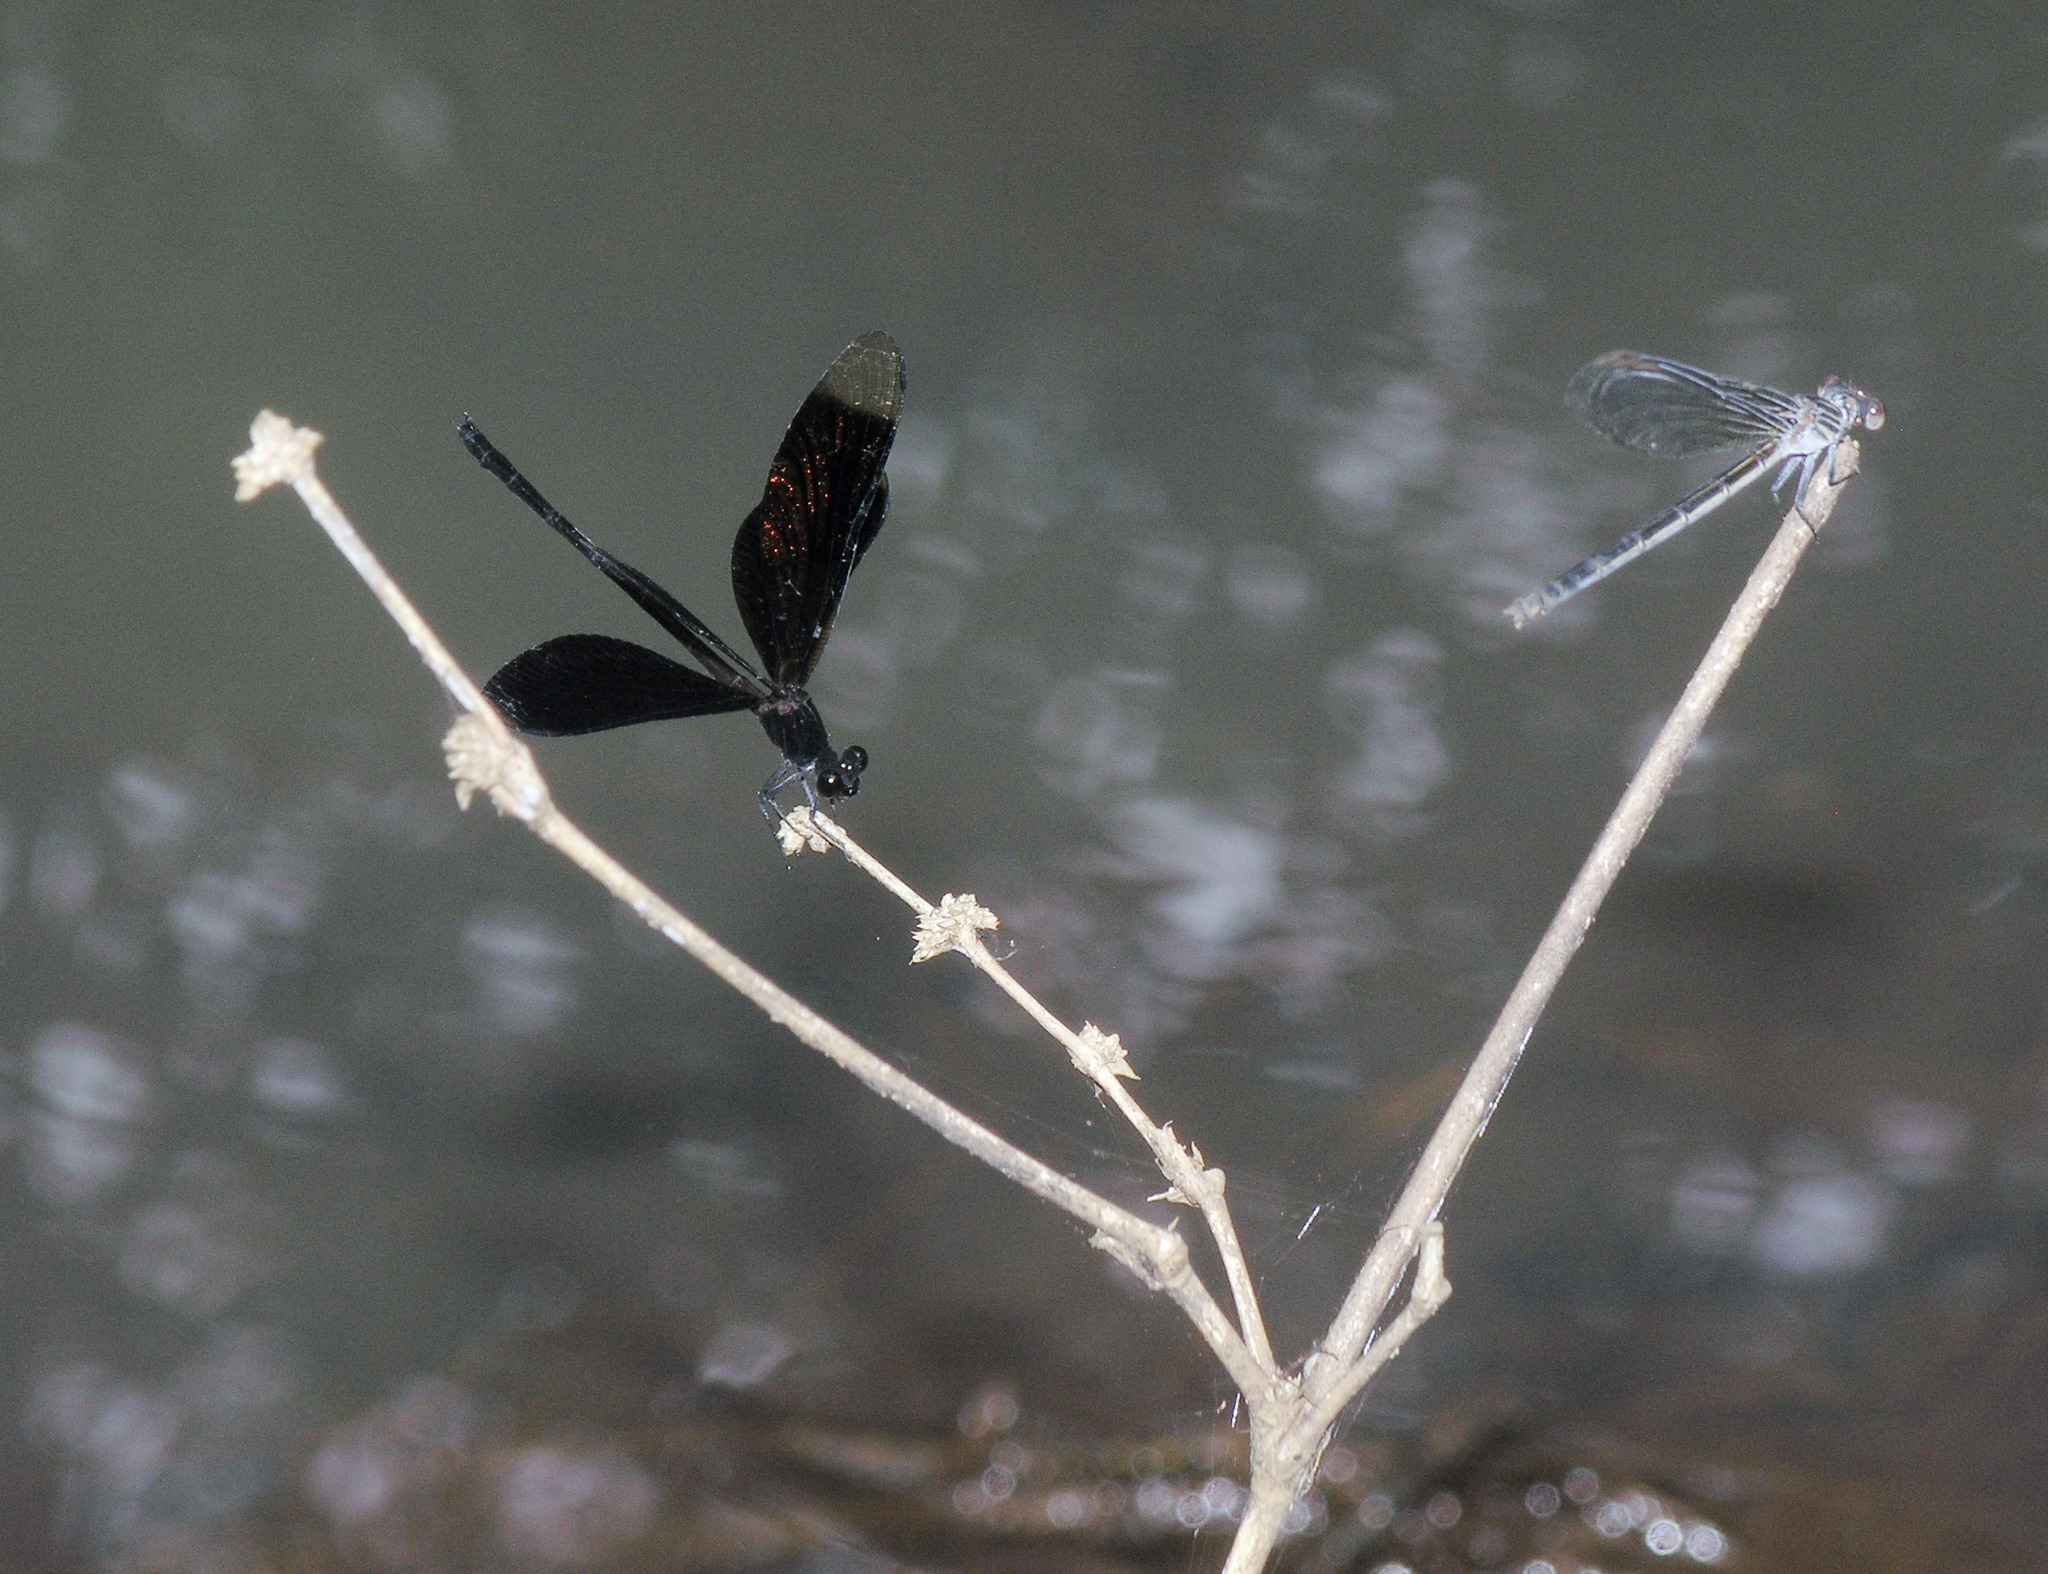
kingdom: Animalia
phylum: Arthropoda
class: Insecta
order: Odonata
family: Euphaeidae
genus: Euphaea
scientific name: Euphaea inouei
